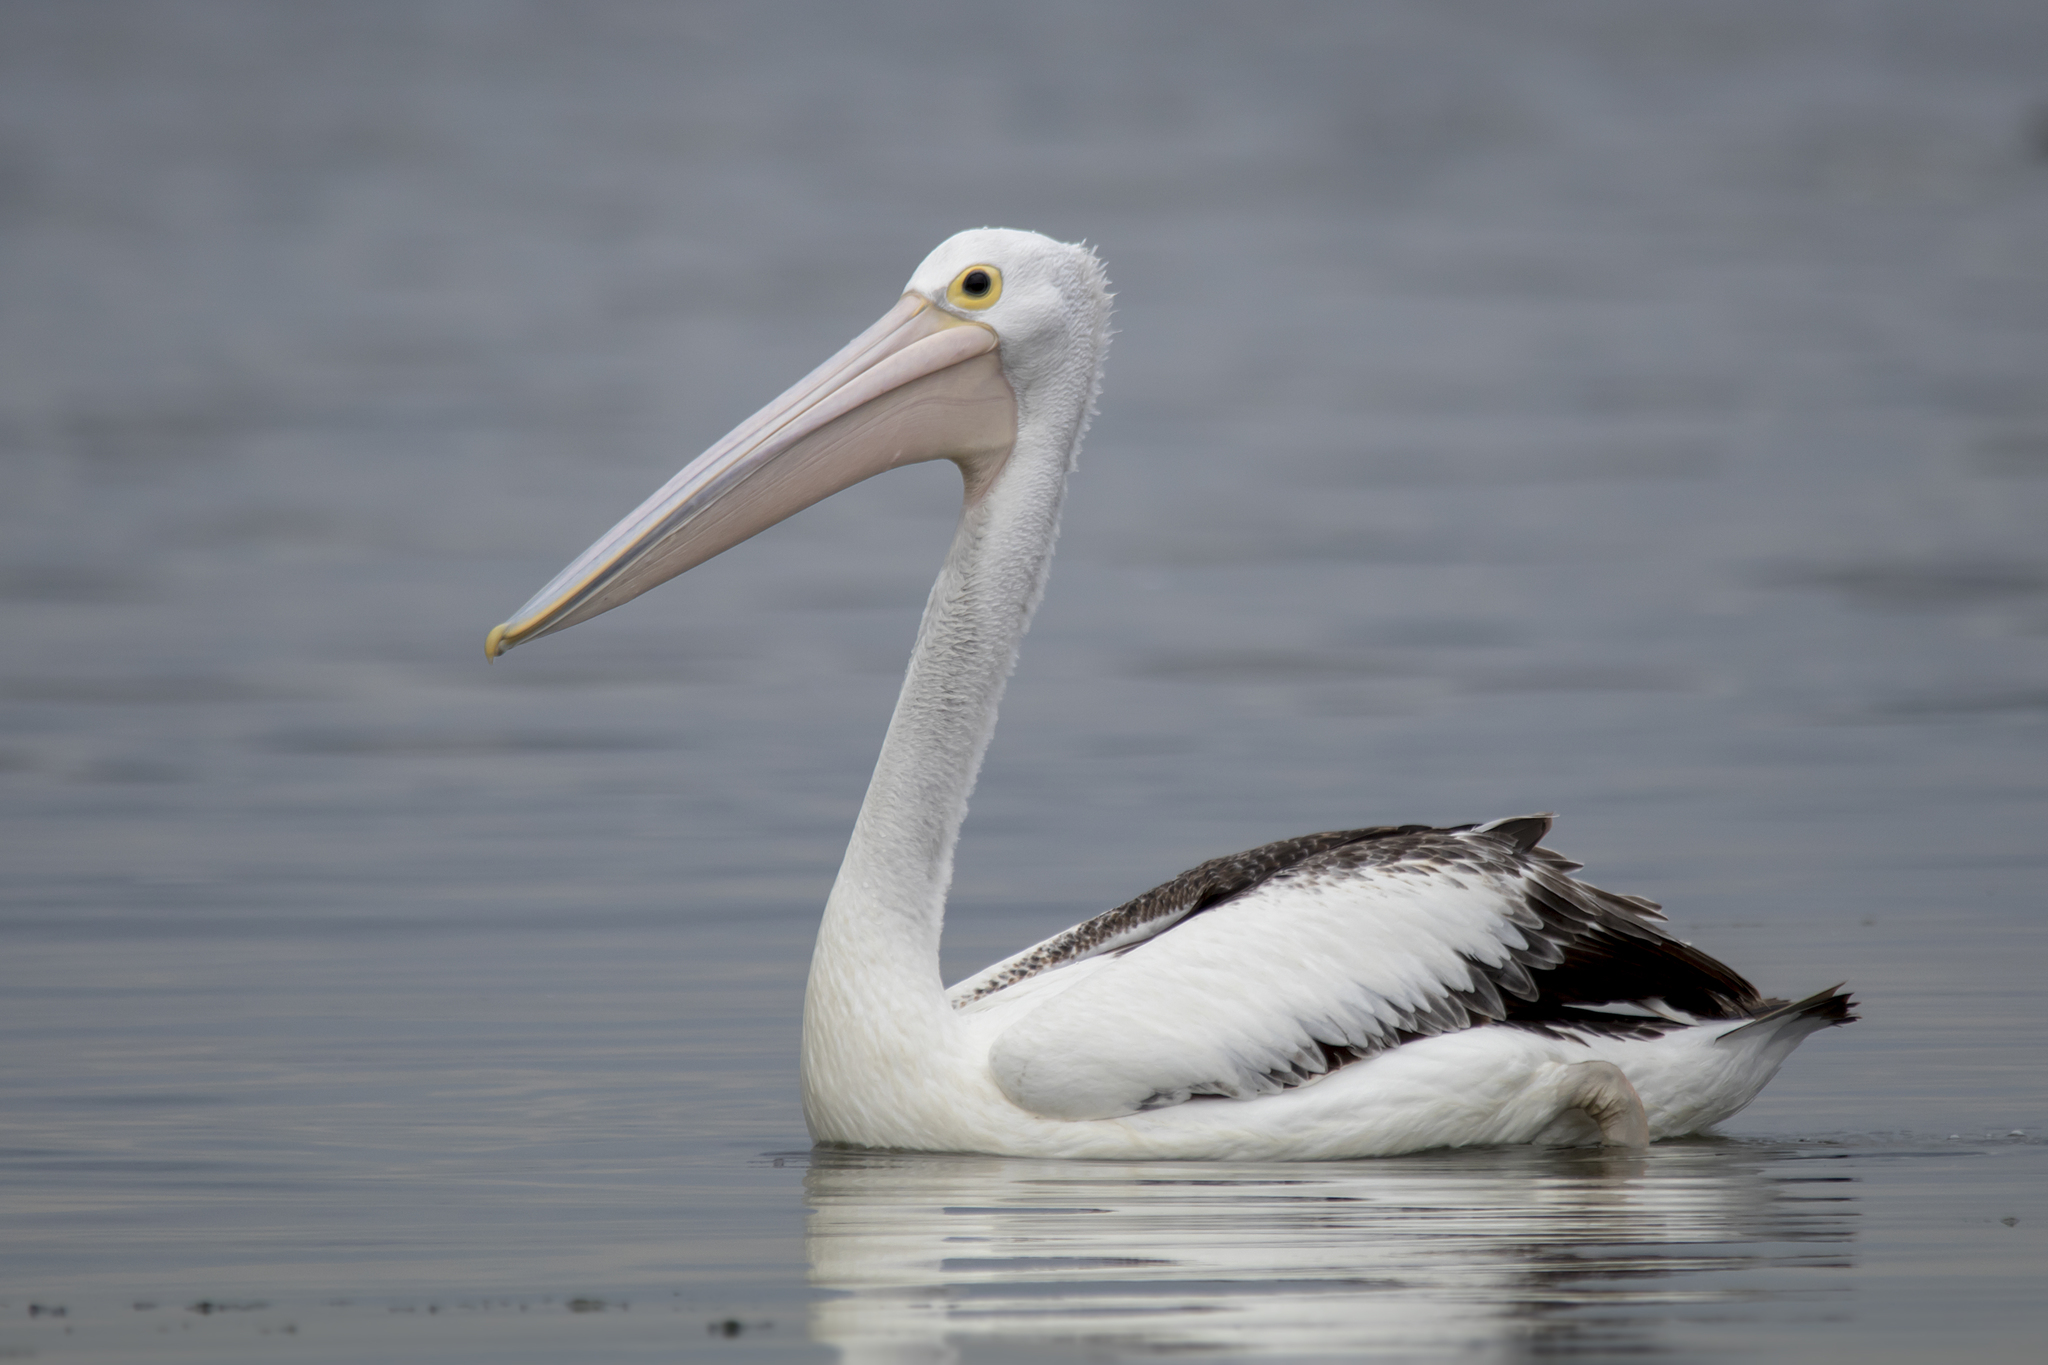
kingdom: Animalia
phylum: Chordata
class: Aves
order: Pelecaniformes
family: Pelecanidae
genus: Pelecanus
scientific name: Pelecanus conspicillatus
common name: Australian pelican
